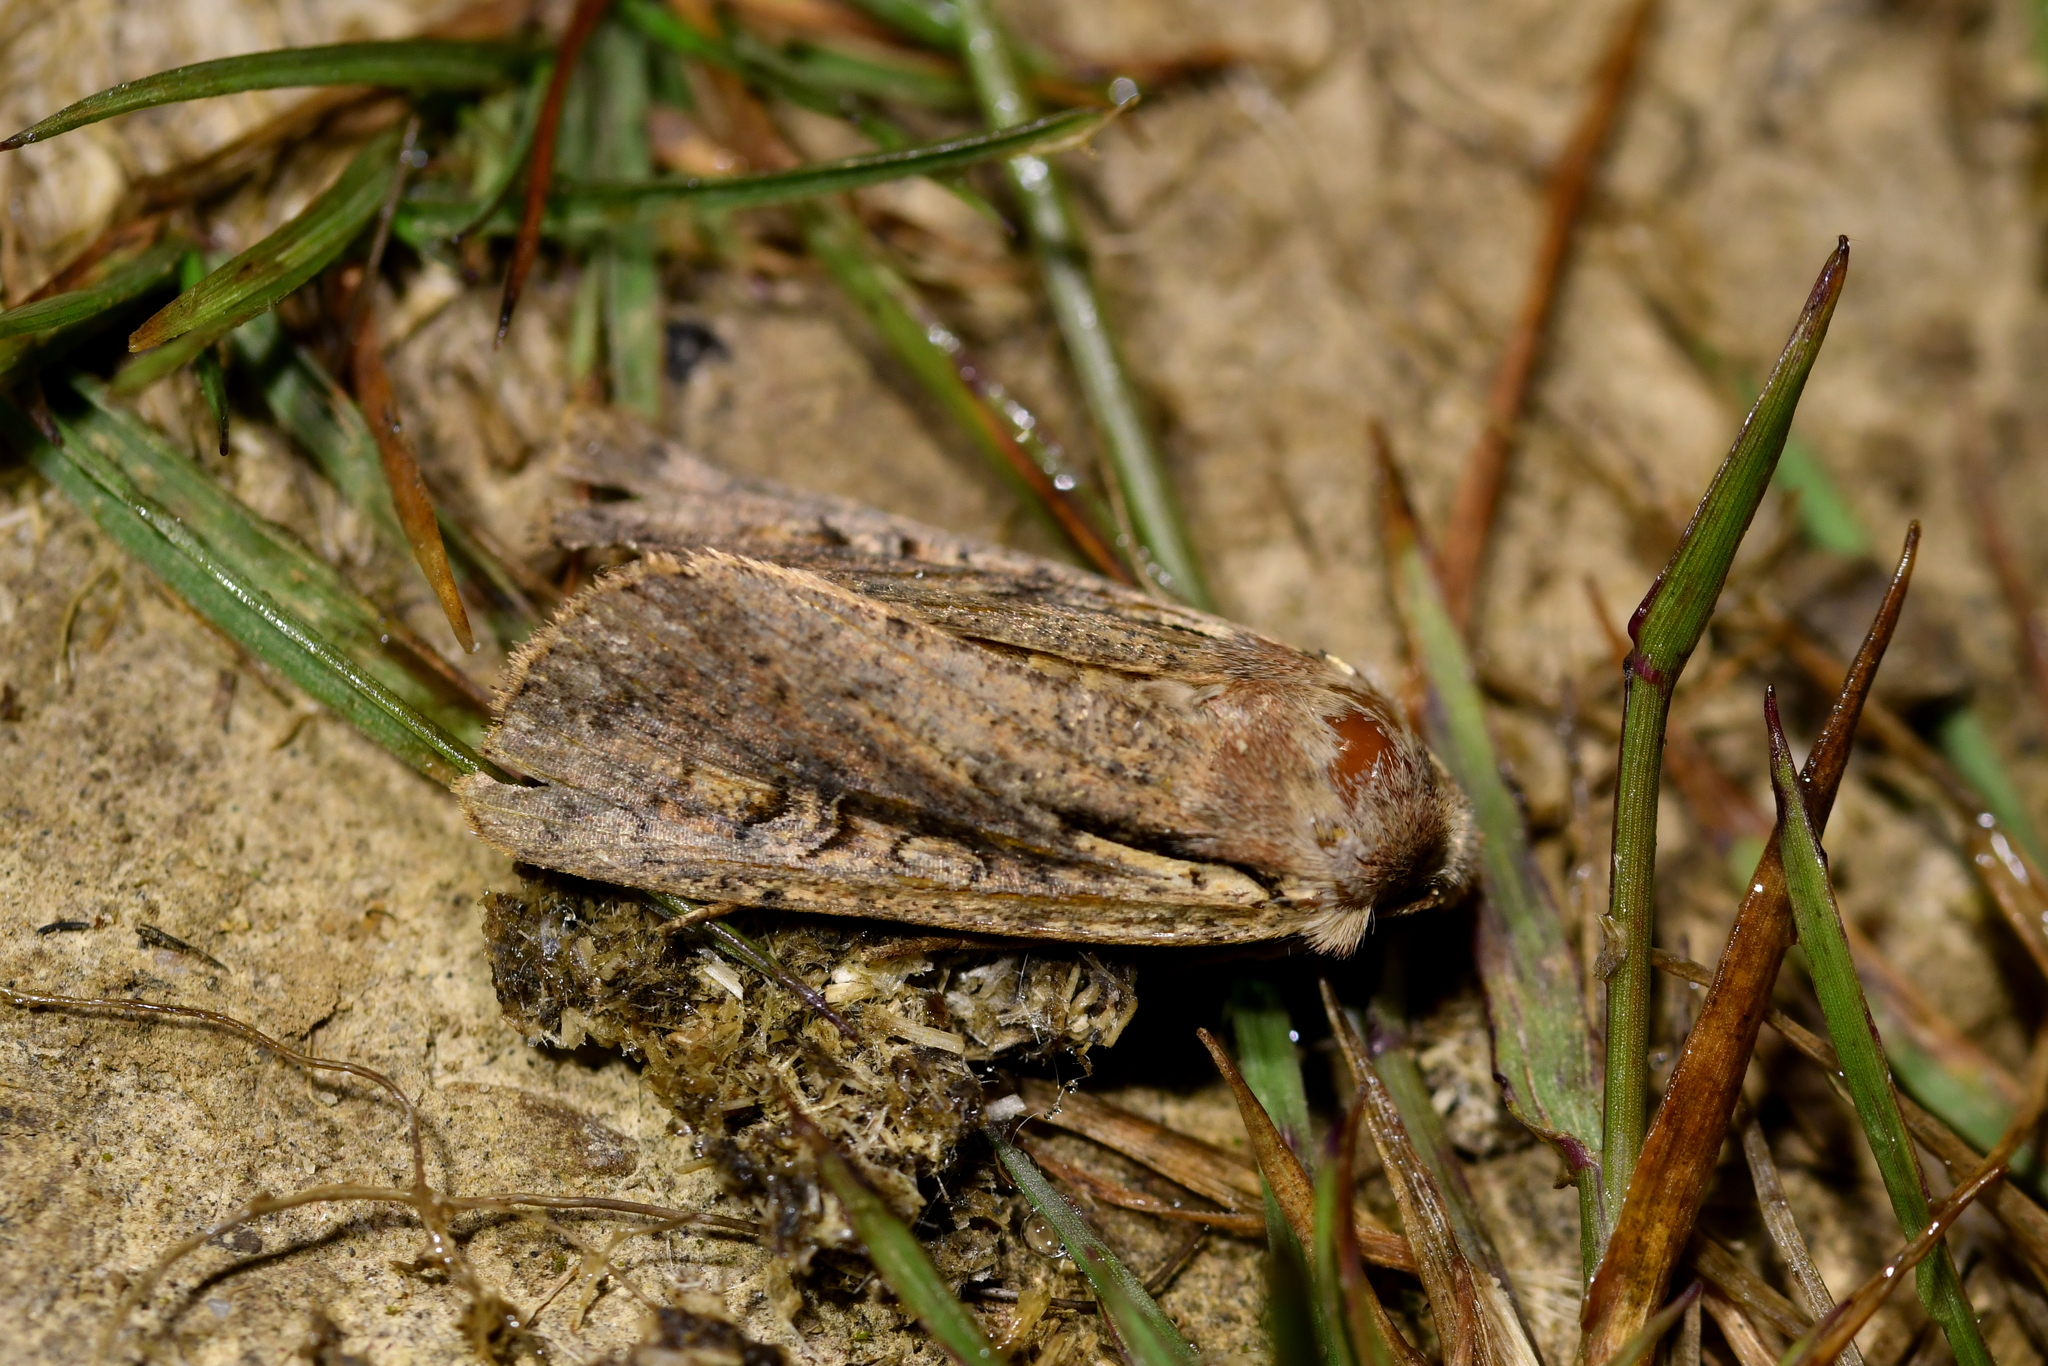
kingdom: Animalia
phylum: Arthropoda
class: Insecta
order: Lepidoptera
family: Noctuidae
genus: Ichneutica
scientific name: Ichneutica atristriga
